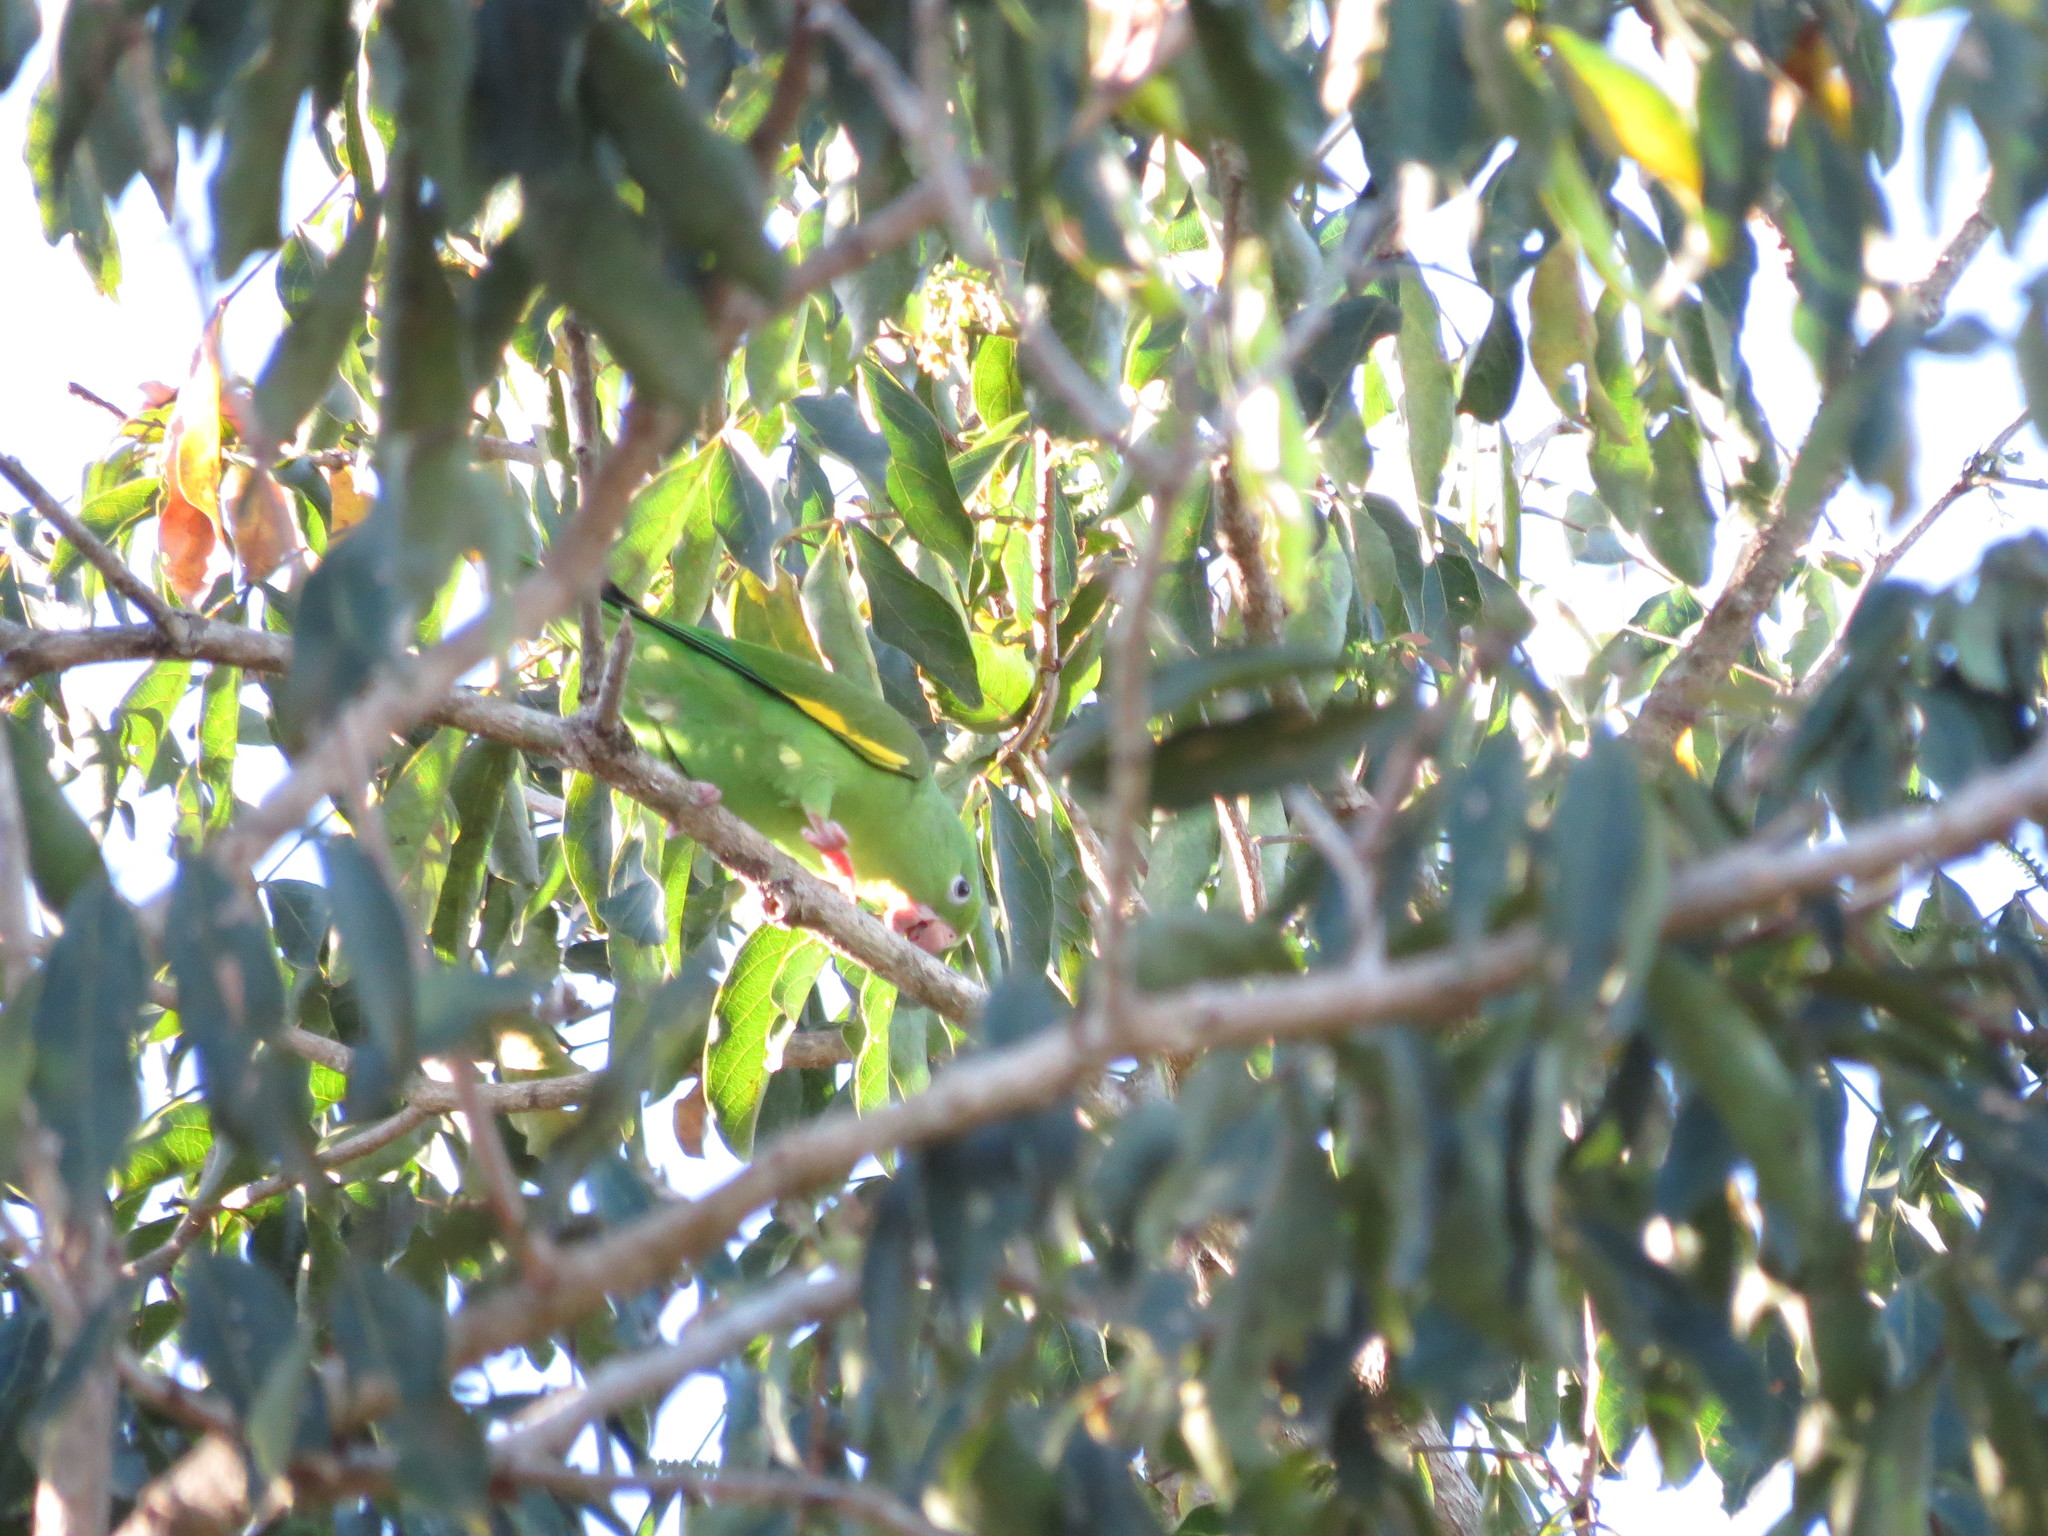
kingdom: Animalia
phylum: Chordata
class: Aves
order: Psittaciformes
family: Psittacidae
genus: Brotogeris
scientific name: Brotogeris chiriri
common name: Yellow-chevroned parakeet
